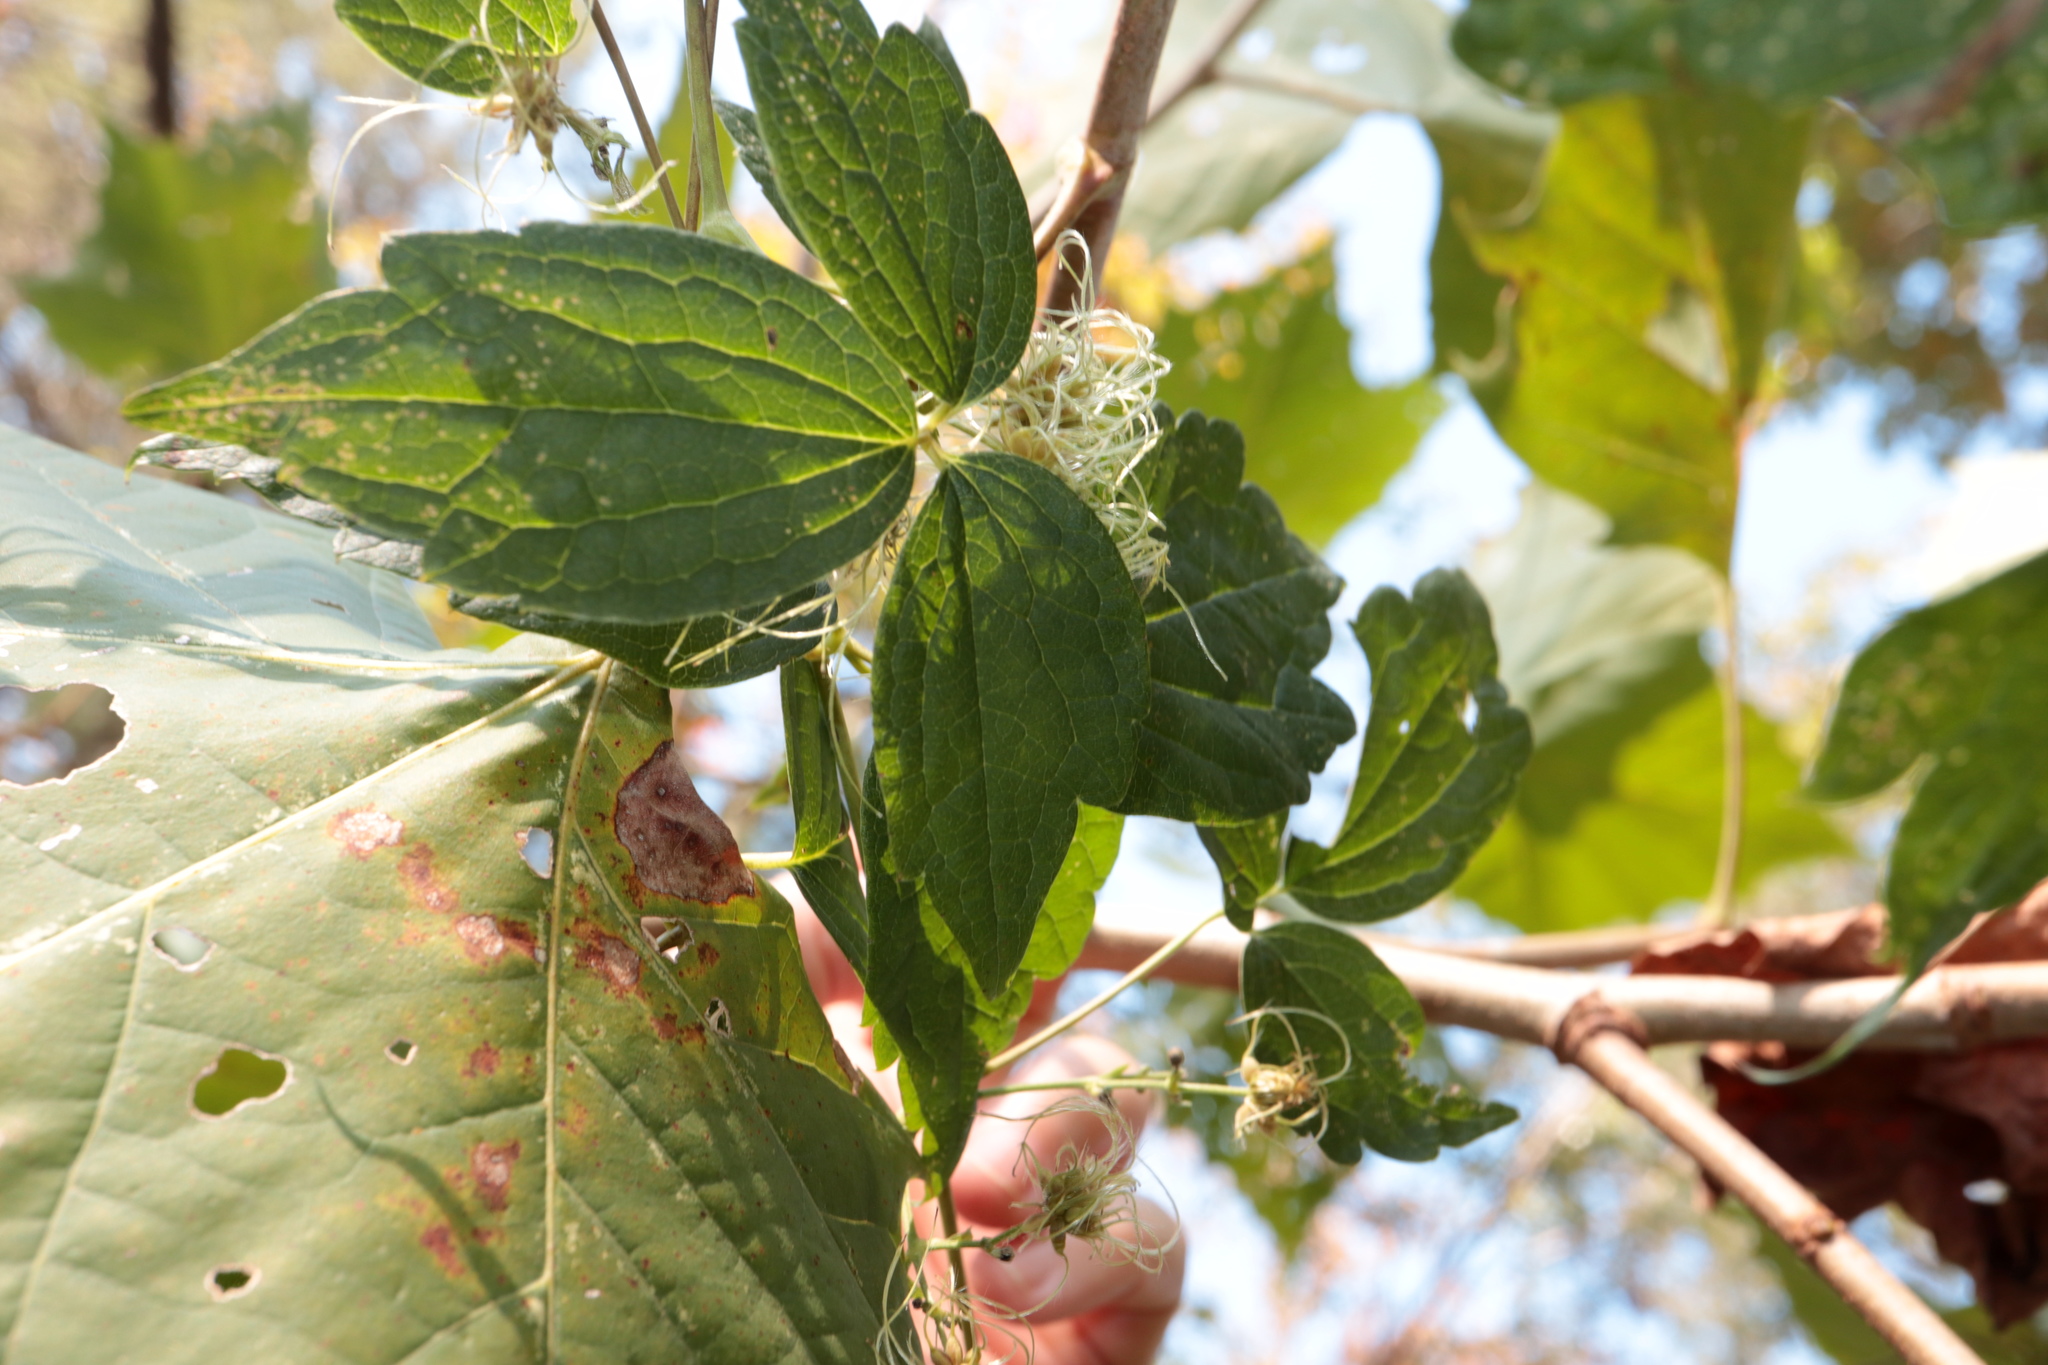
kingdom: Plantae
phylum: Tracheophyta
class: Magnoliopsida
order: Ranunculales
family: Ranunculaceae
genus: Clematis
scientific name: Clematis virginiana
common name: Virgin's-bower
